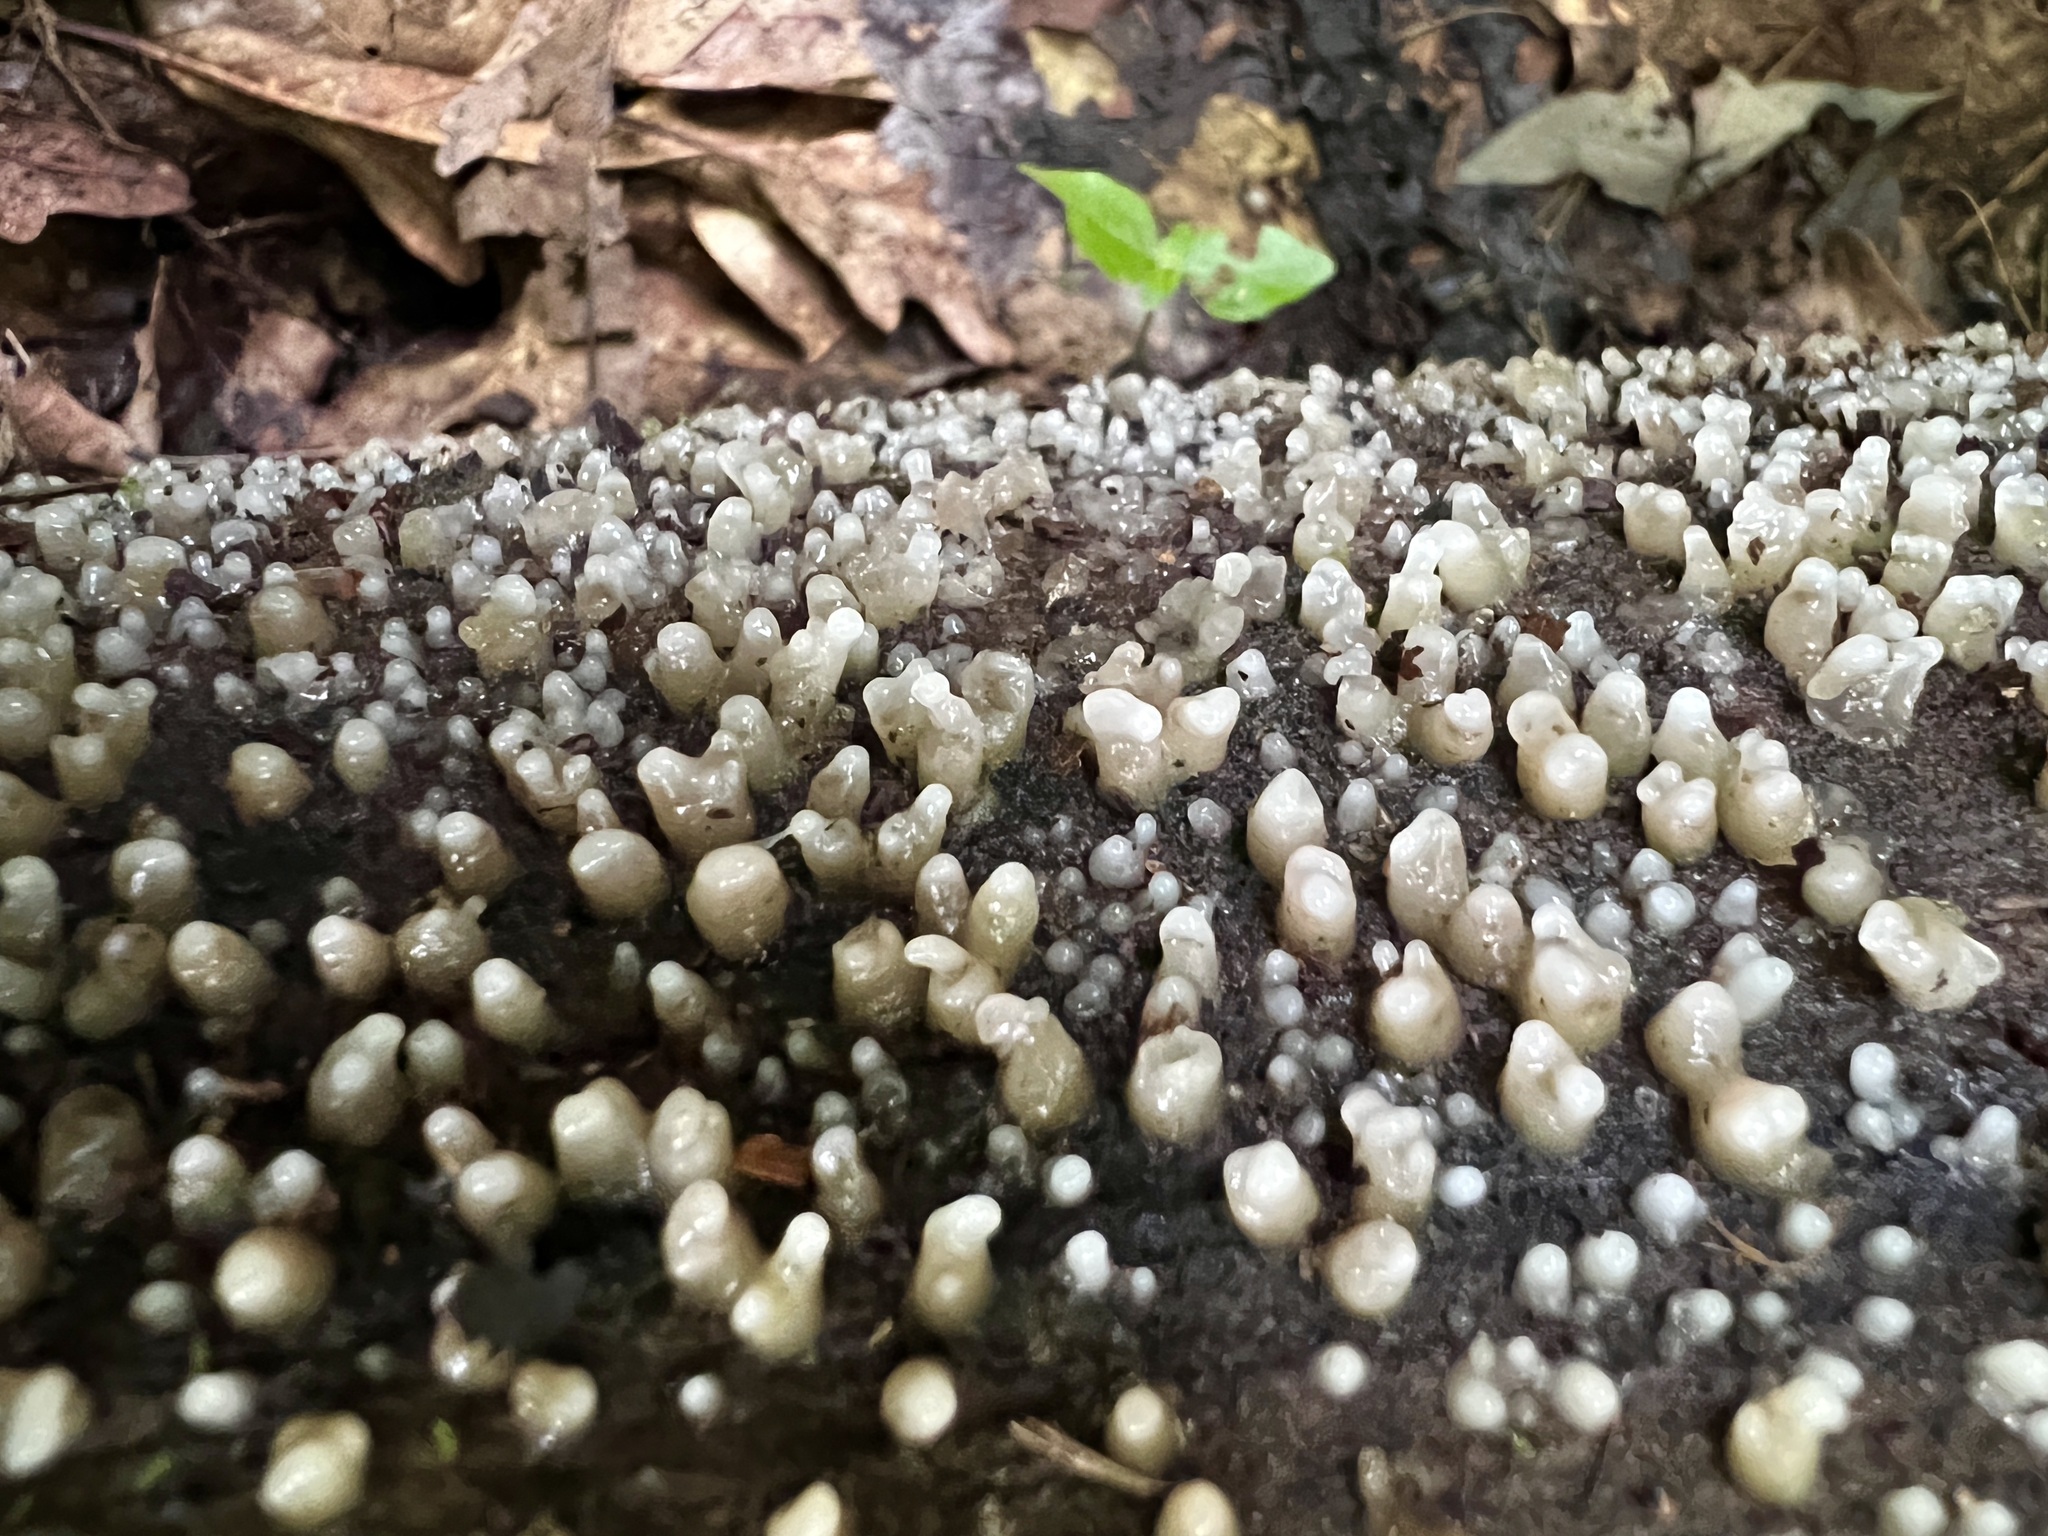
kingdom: Fungi
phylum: Basidiomycota
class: Atractiellomycetes
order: Atractiellales
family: Phleogenaceae
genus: Helicogloea
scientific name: Helicogloea compressa
